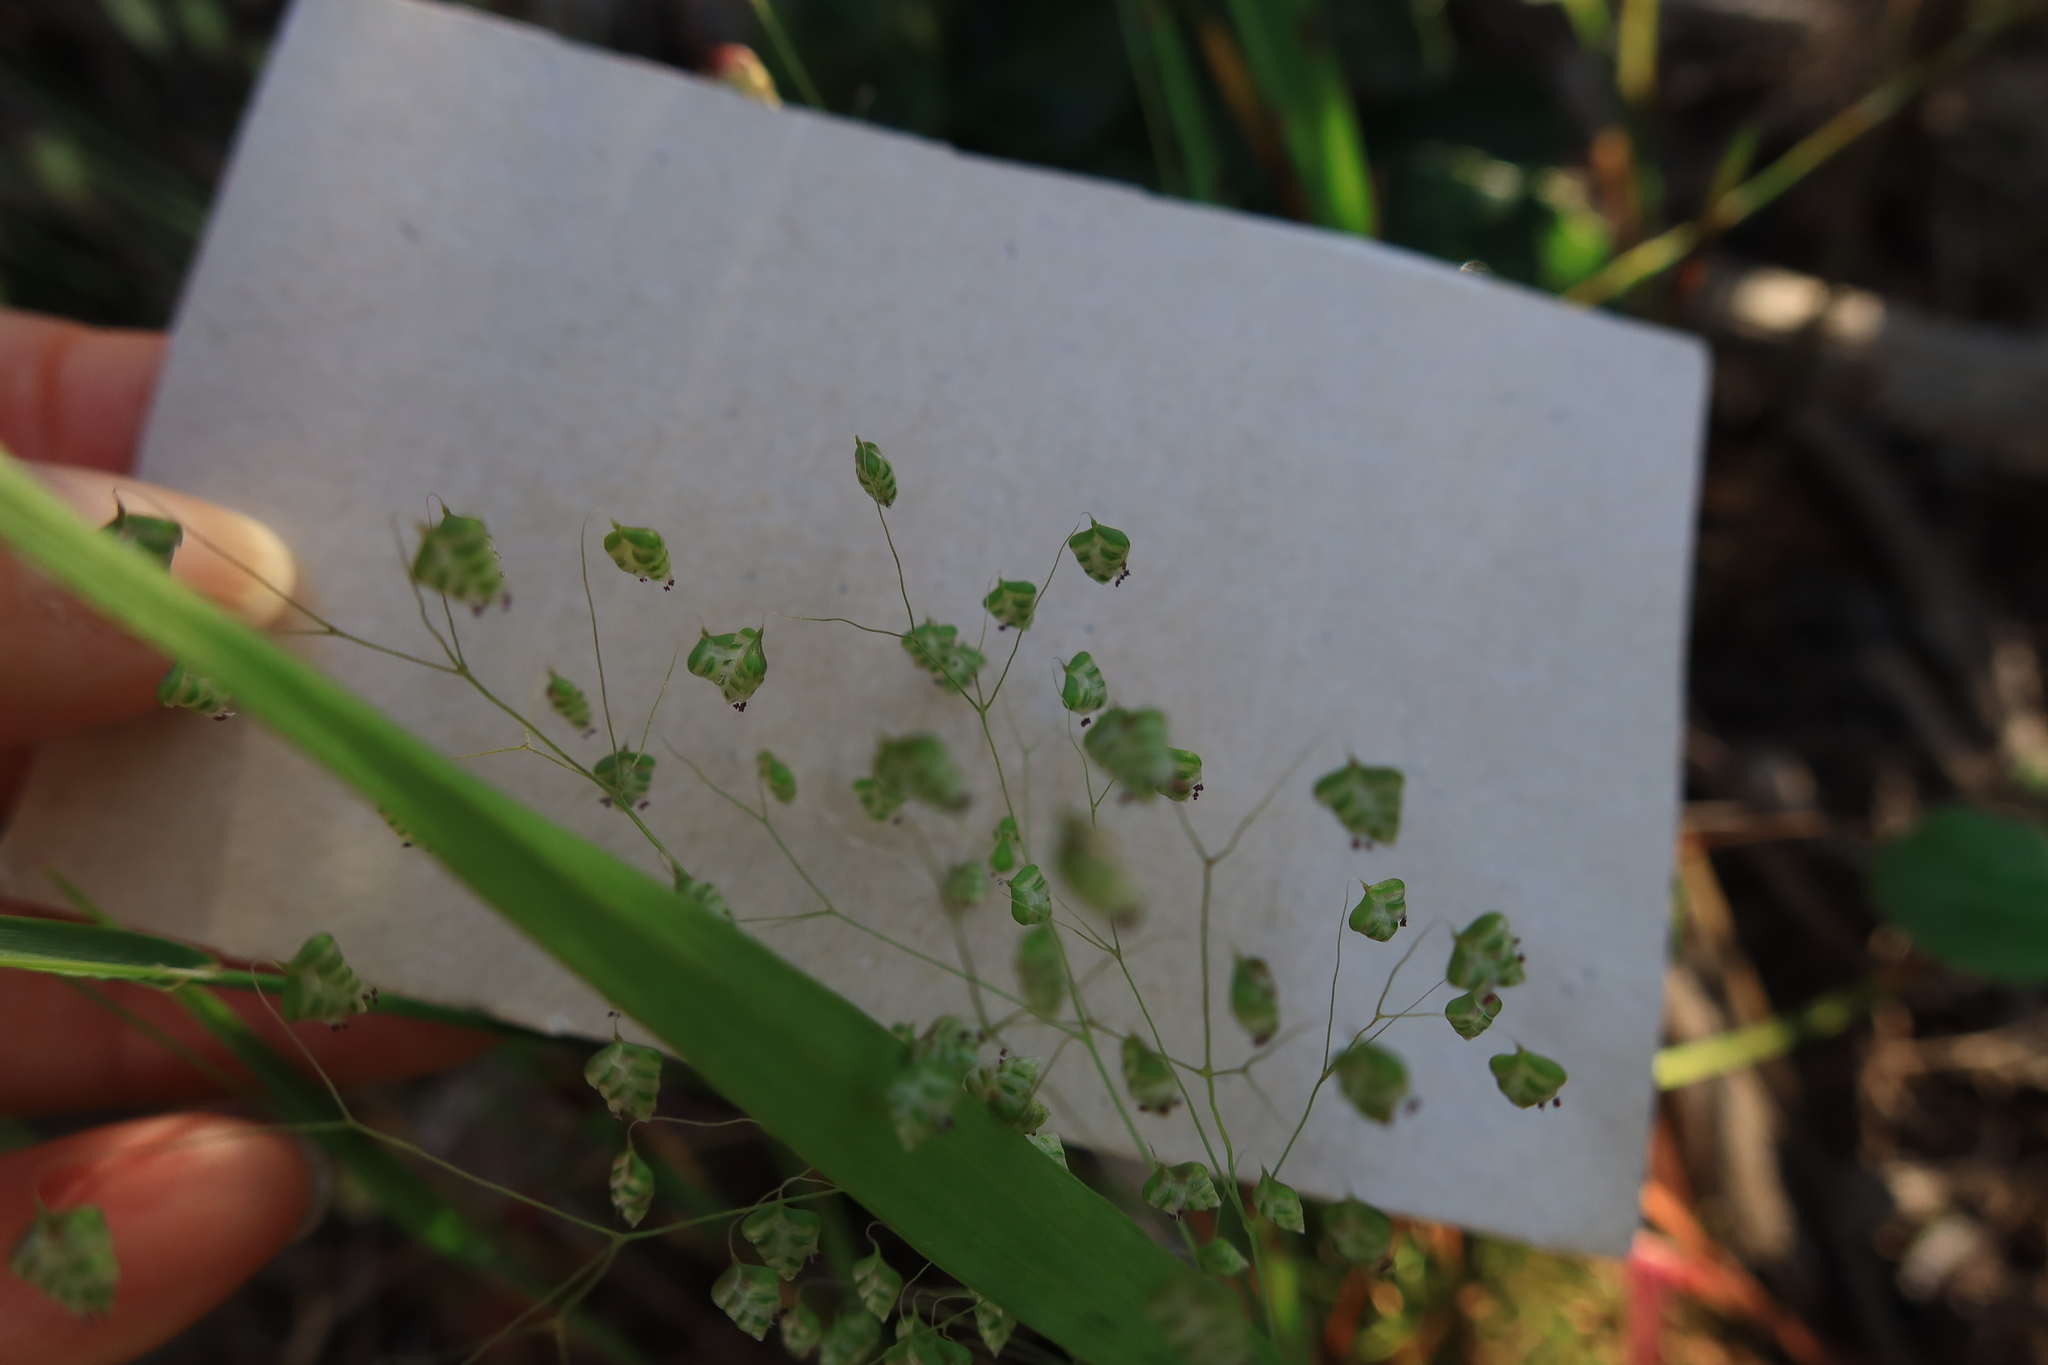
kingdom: Plantae
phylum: Tracheophyta
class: Liliopsida
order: Poales
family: Poaceae
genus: Briza
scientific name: Briza minor
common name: Lesser quaking-grass
